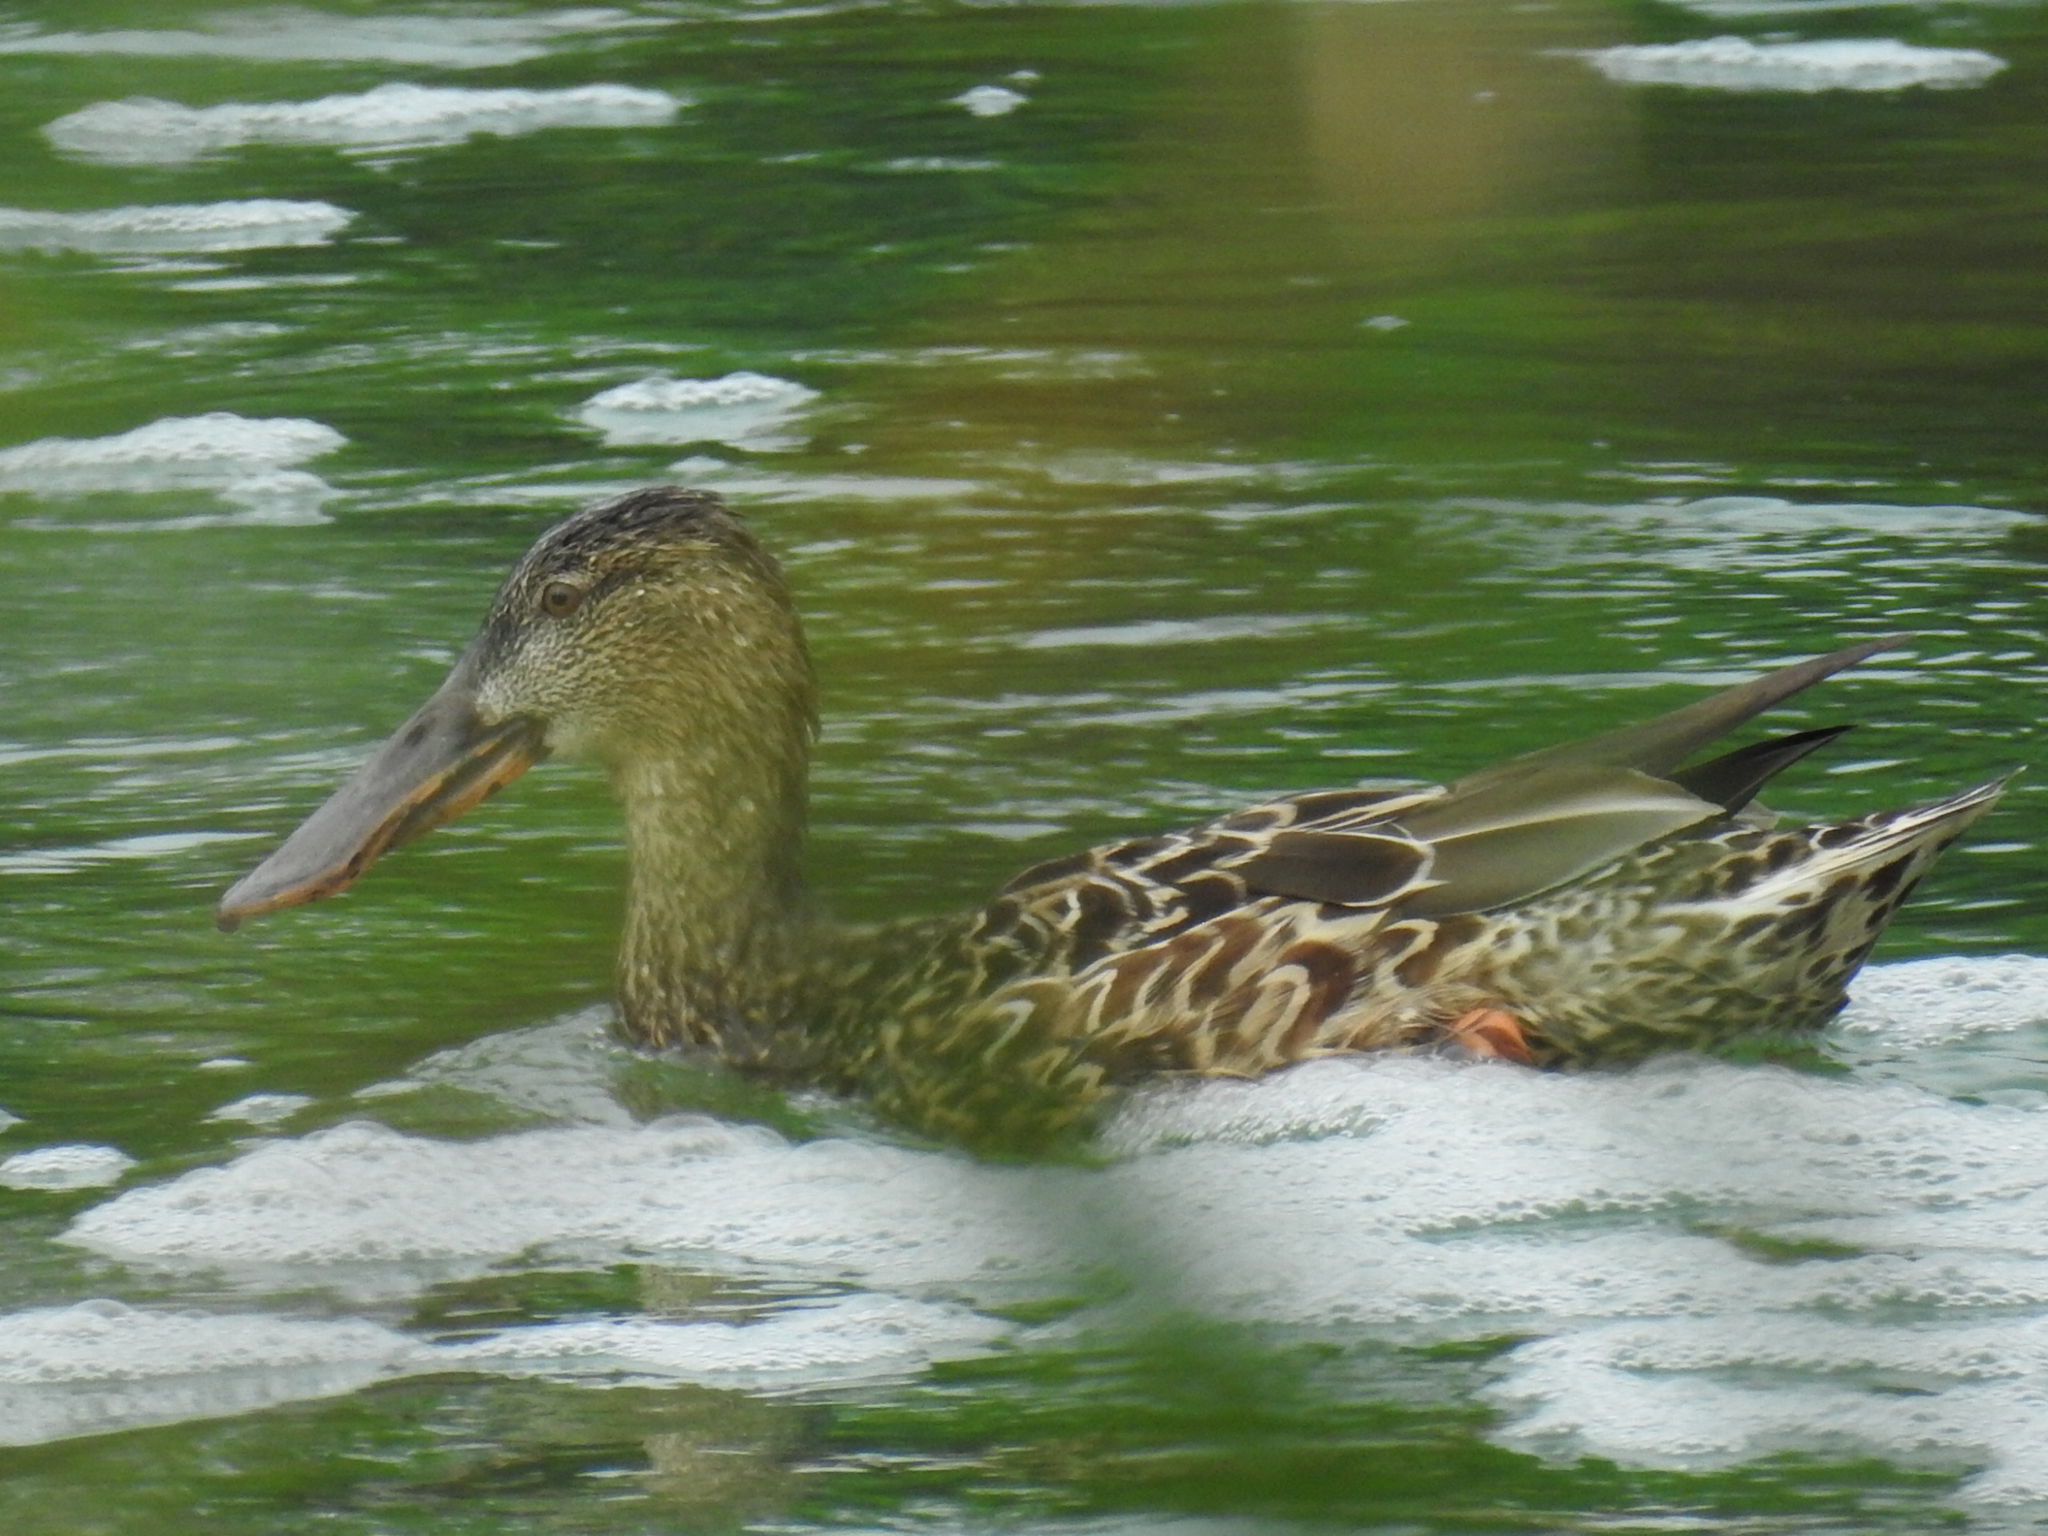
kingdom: Animalia
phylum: Chordata
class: Aves
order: Anseriformes
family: Anatidae
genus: Spatula
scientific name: Spatula clypeata
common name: Northern shoveler
